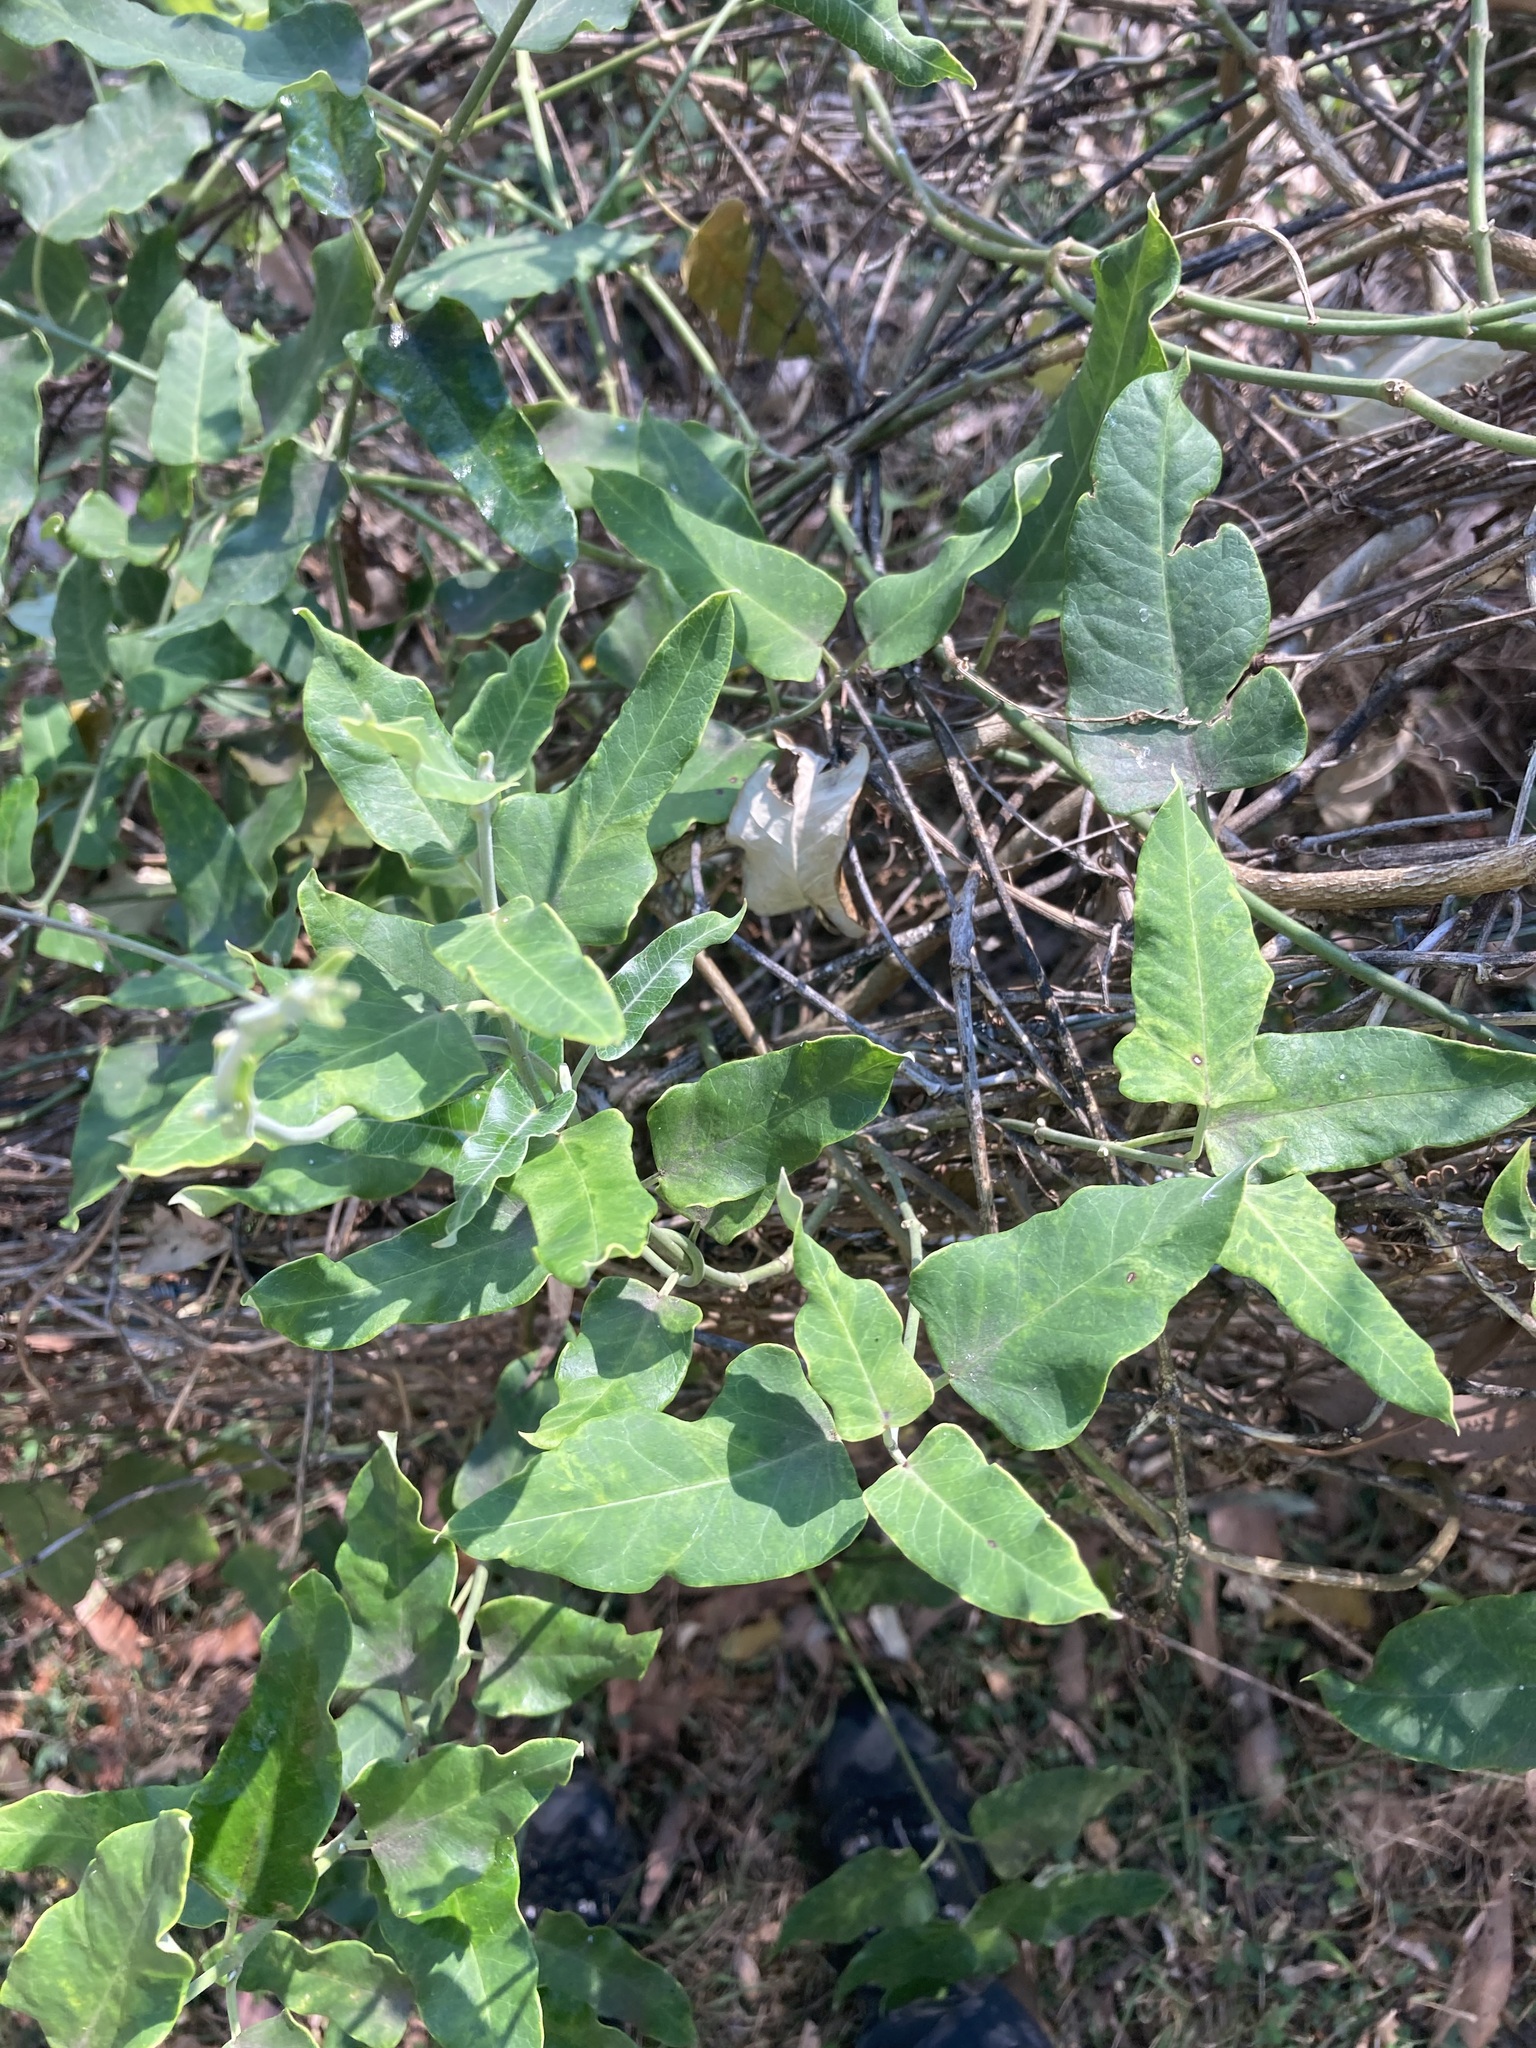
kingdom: Plantae
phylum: Tracheophyta
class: Magnoliopsida
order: Gentianales
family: Apocynaceae
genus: Araujia
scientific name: Araujia sericifera
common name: White bladderflower
